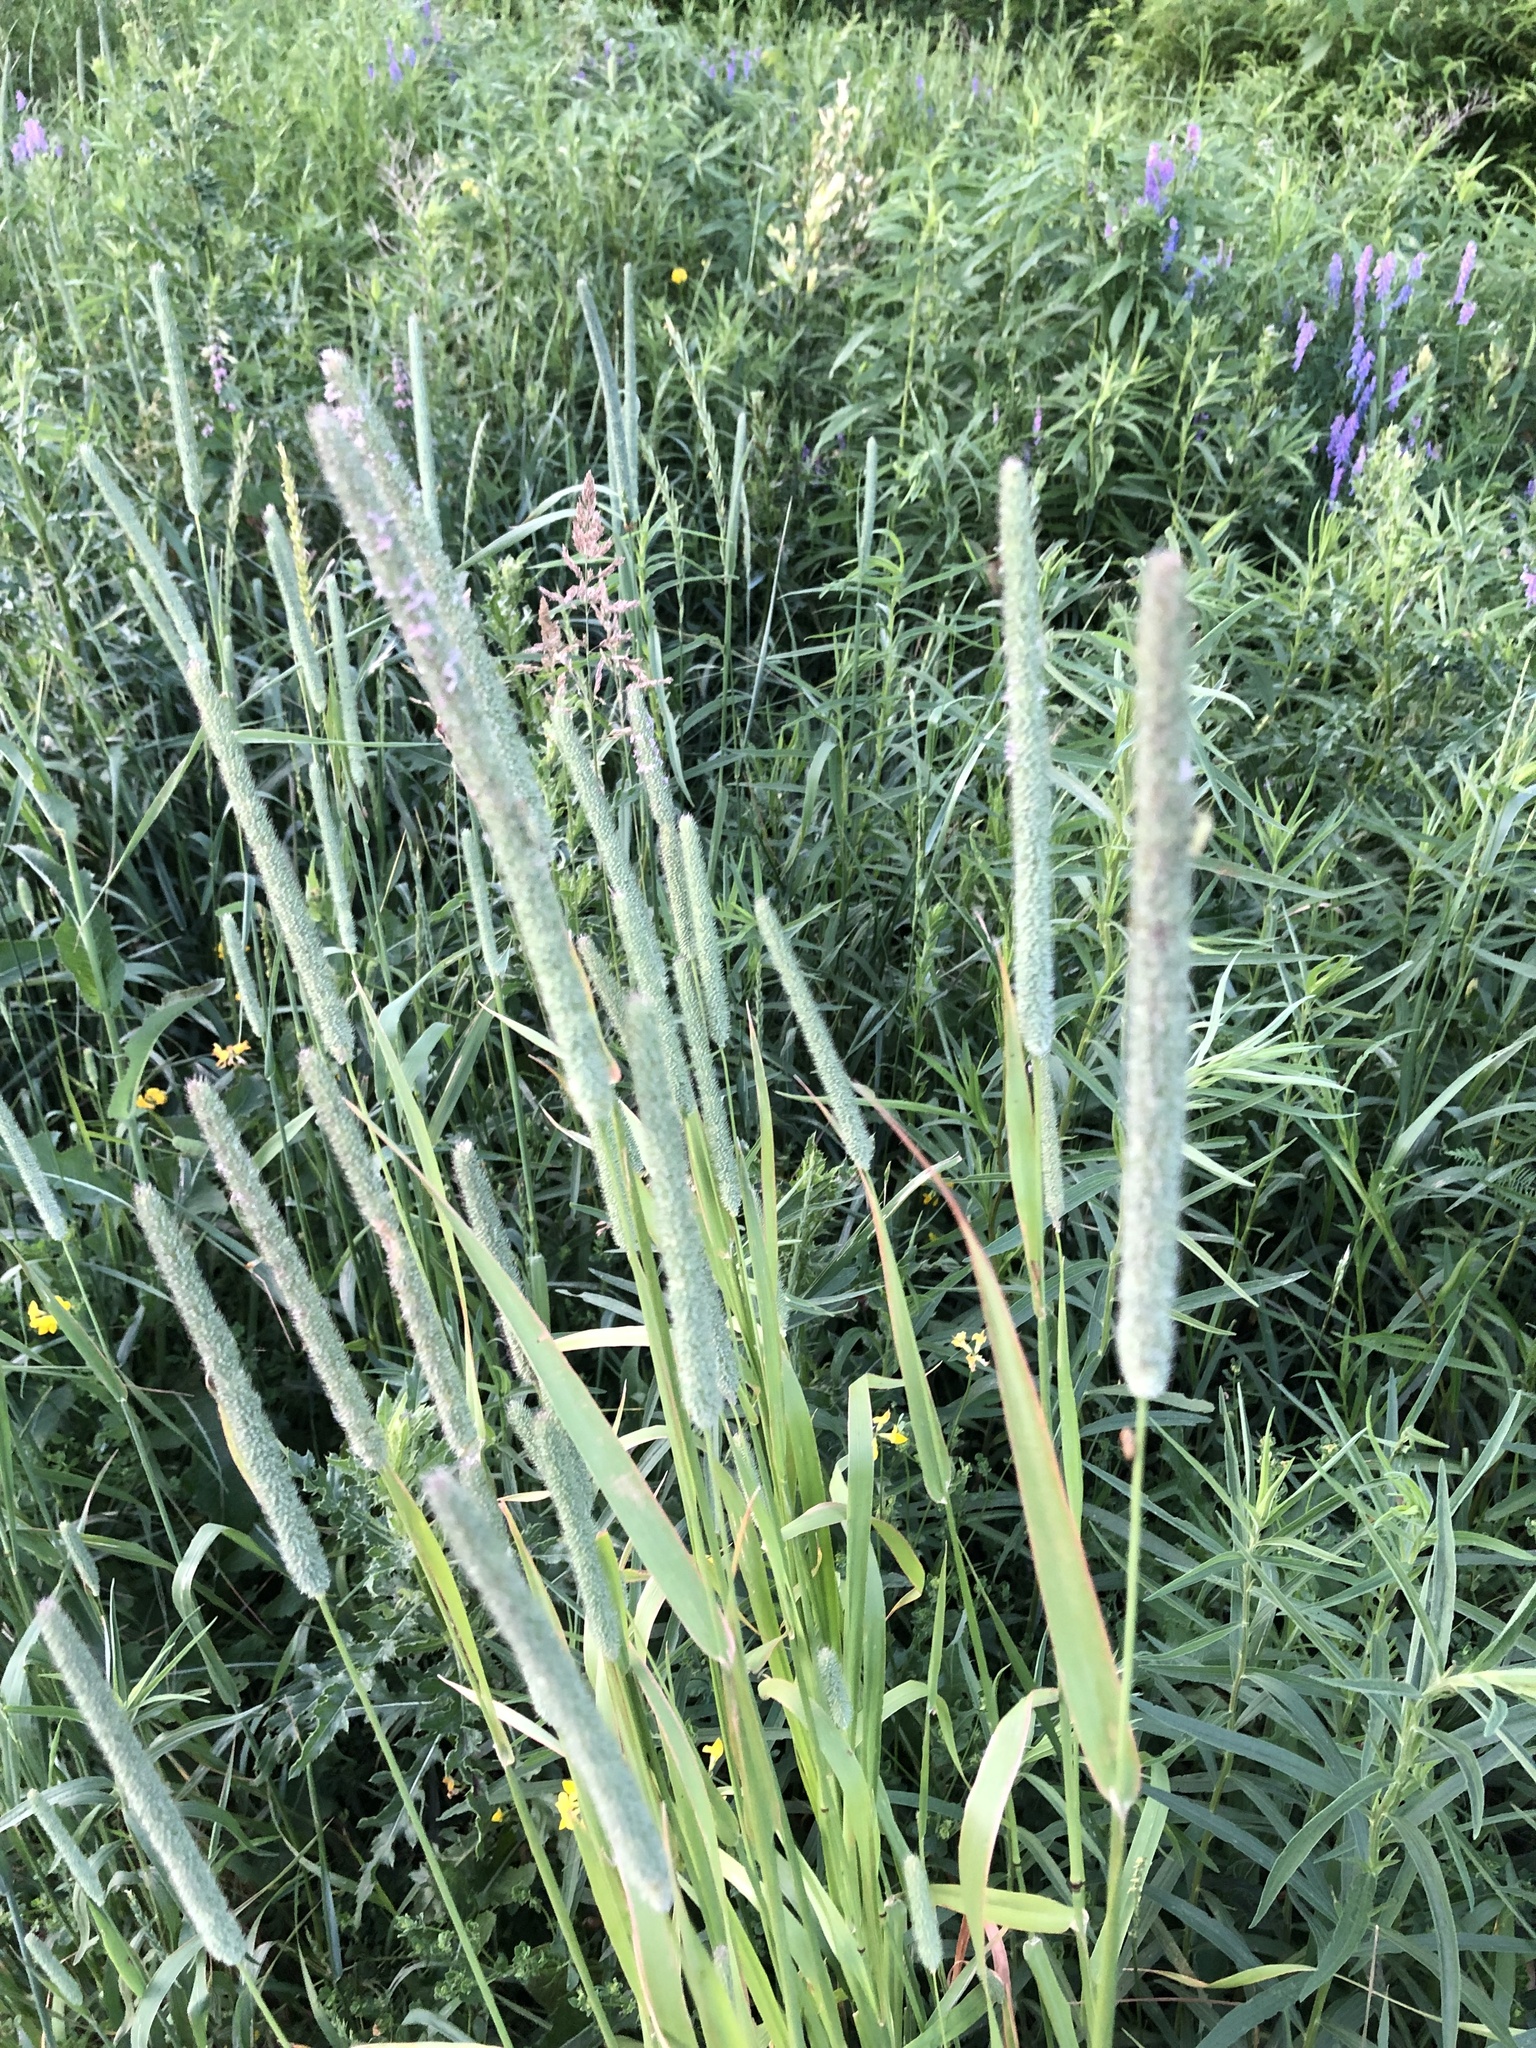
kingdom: Plantae
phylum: Tracheophyta
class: Liliopsida
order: Poales
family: Poaceae
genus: Phleum
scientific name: Phleum pratense
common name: Timothy grass
